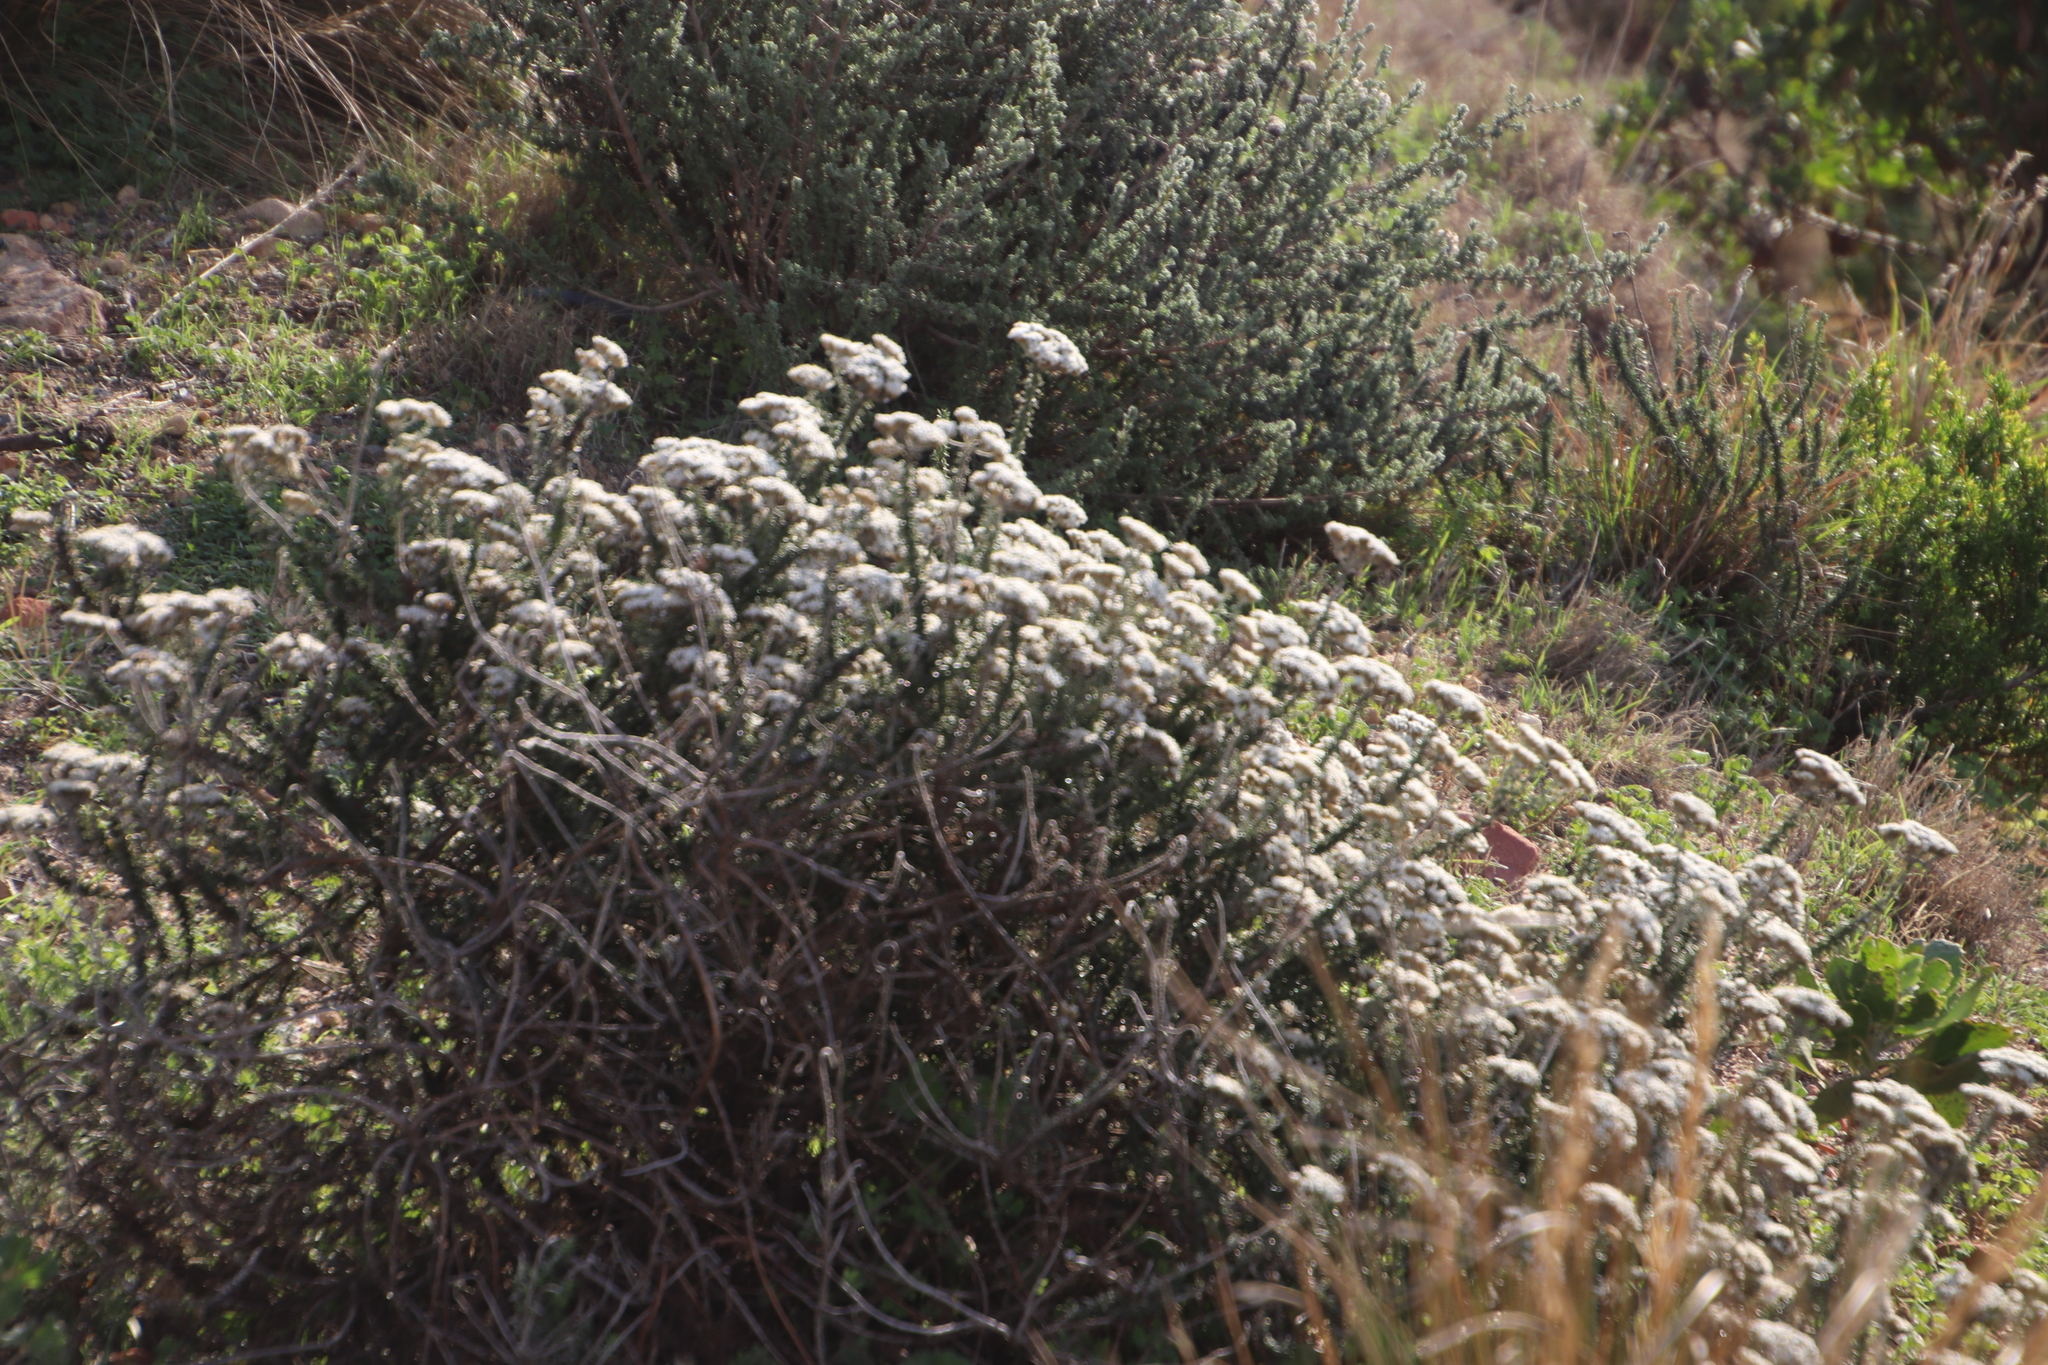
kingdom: Plantae
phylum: Tracheophyta
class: Magnoliopsida
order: Asterales
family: Asteraceae
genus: Metalasia
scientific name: Metalasia densa
